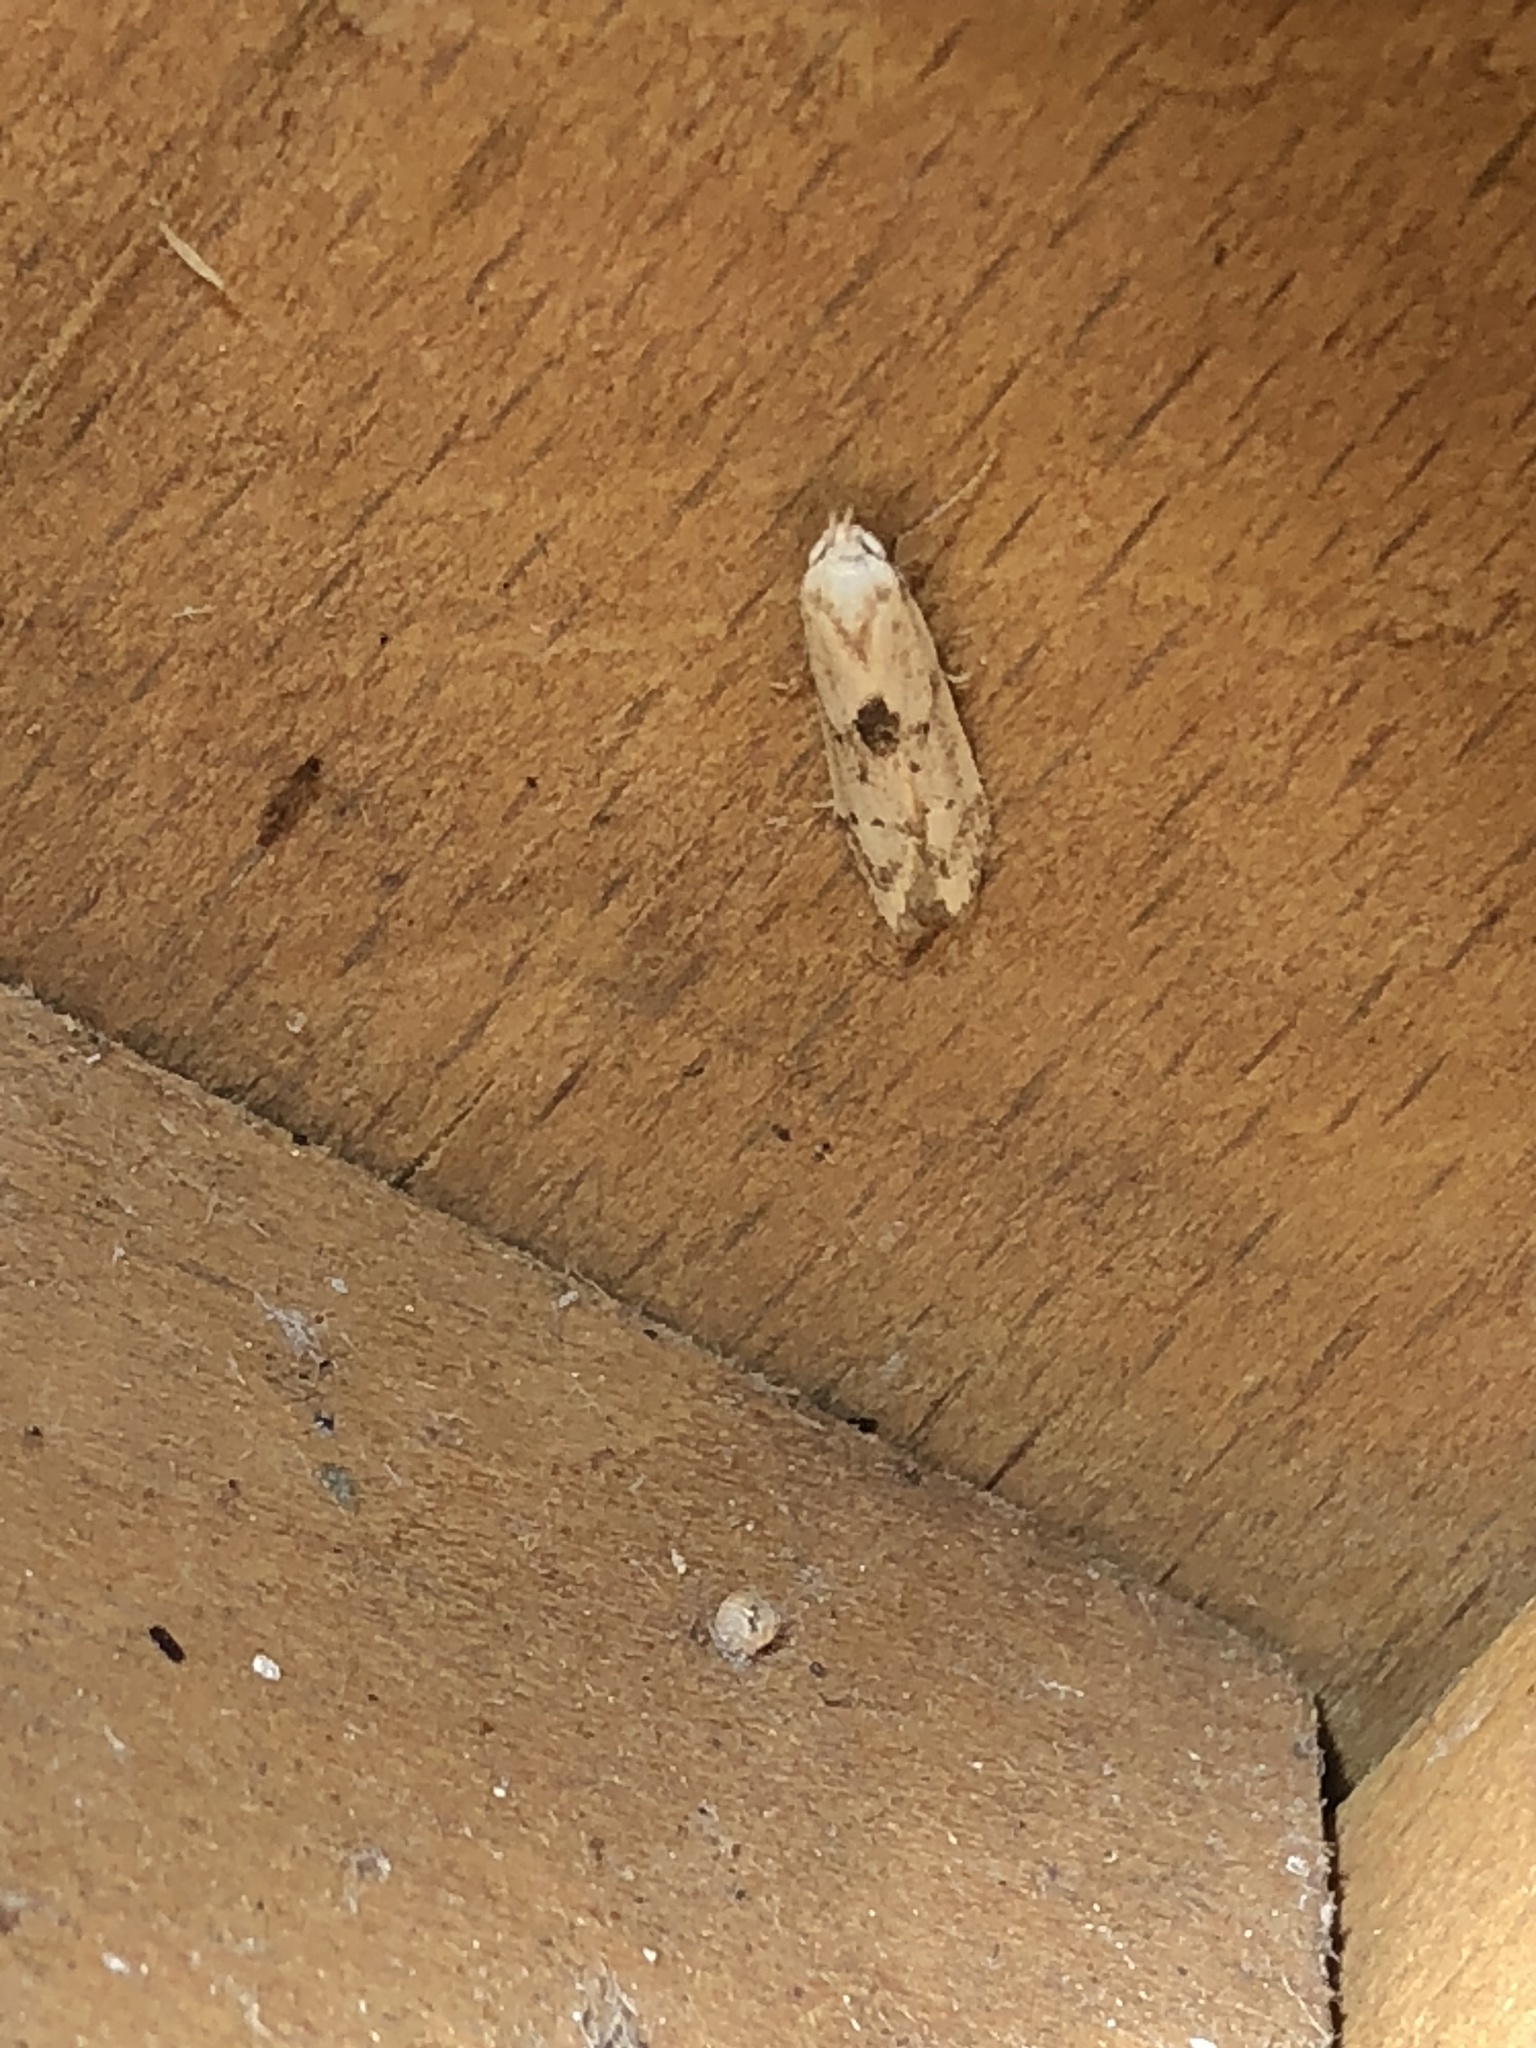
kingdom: Animalia
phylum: Arthropoda
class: Insecta
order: Lepidoptera
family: Blastobasidae
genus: Blastobasis
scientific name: Blastobasis lacticolella
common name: London dowd
